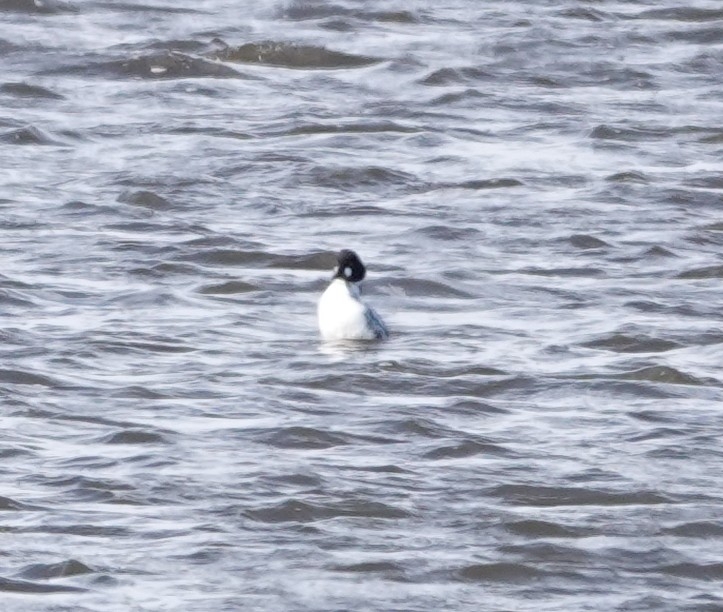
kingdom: Animalia
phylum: Chordata
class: Aves
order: Anseriformes
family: Anatidae
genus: Bucephala
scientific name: Bucephala clangula
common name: Common goldeneye
